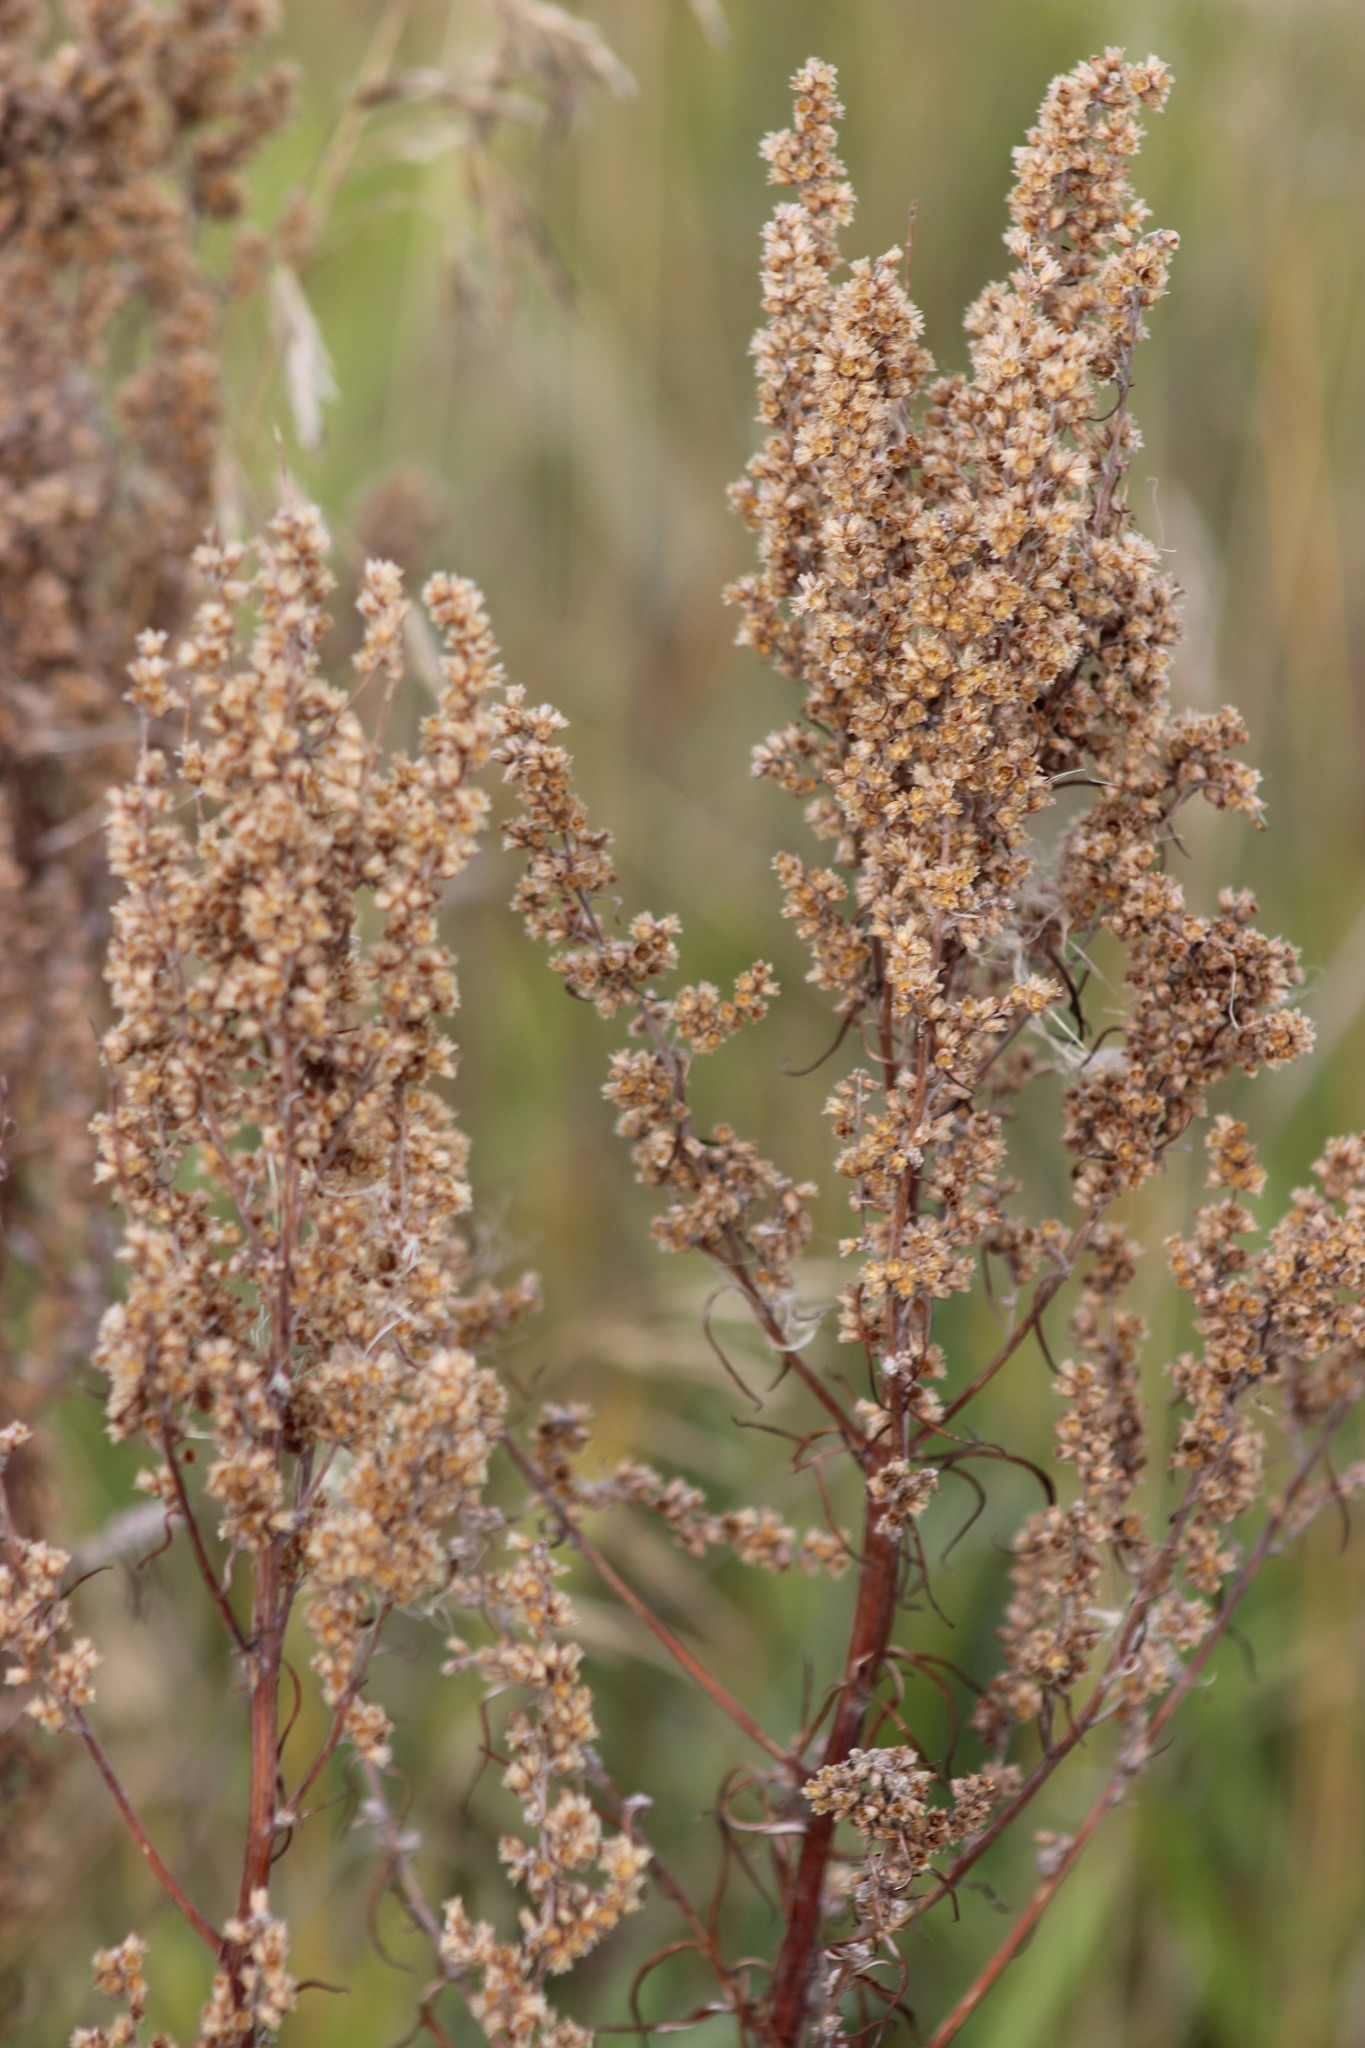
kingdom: Plantae
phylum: Tracheophyta
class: Magnoliopsida
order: Asterales
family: Asteraceae
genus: Artemisia
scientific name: Artemisia vulgaris
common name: Mugwort
